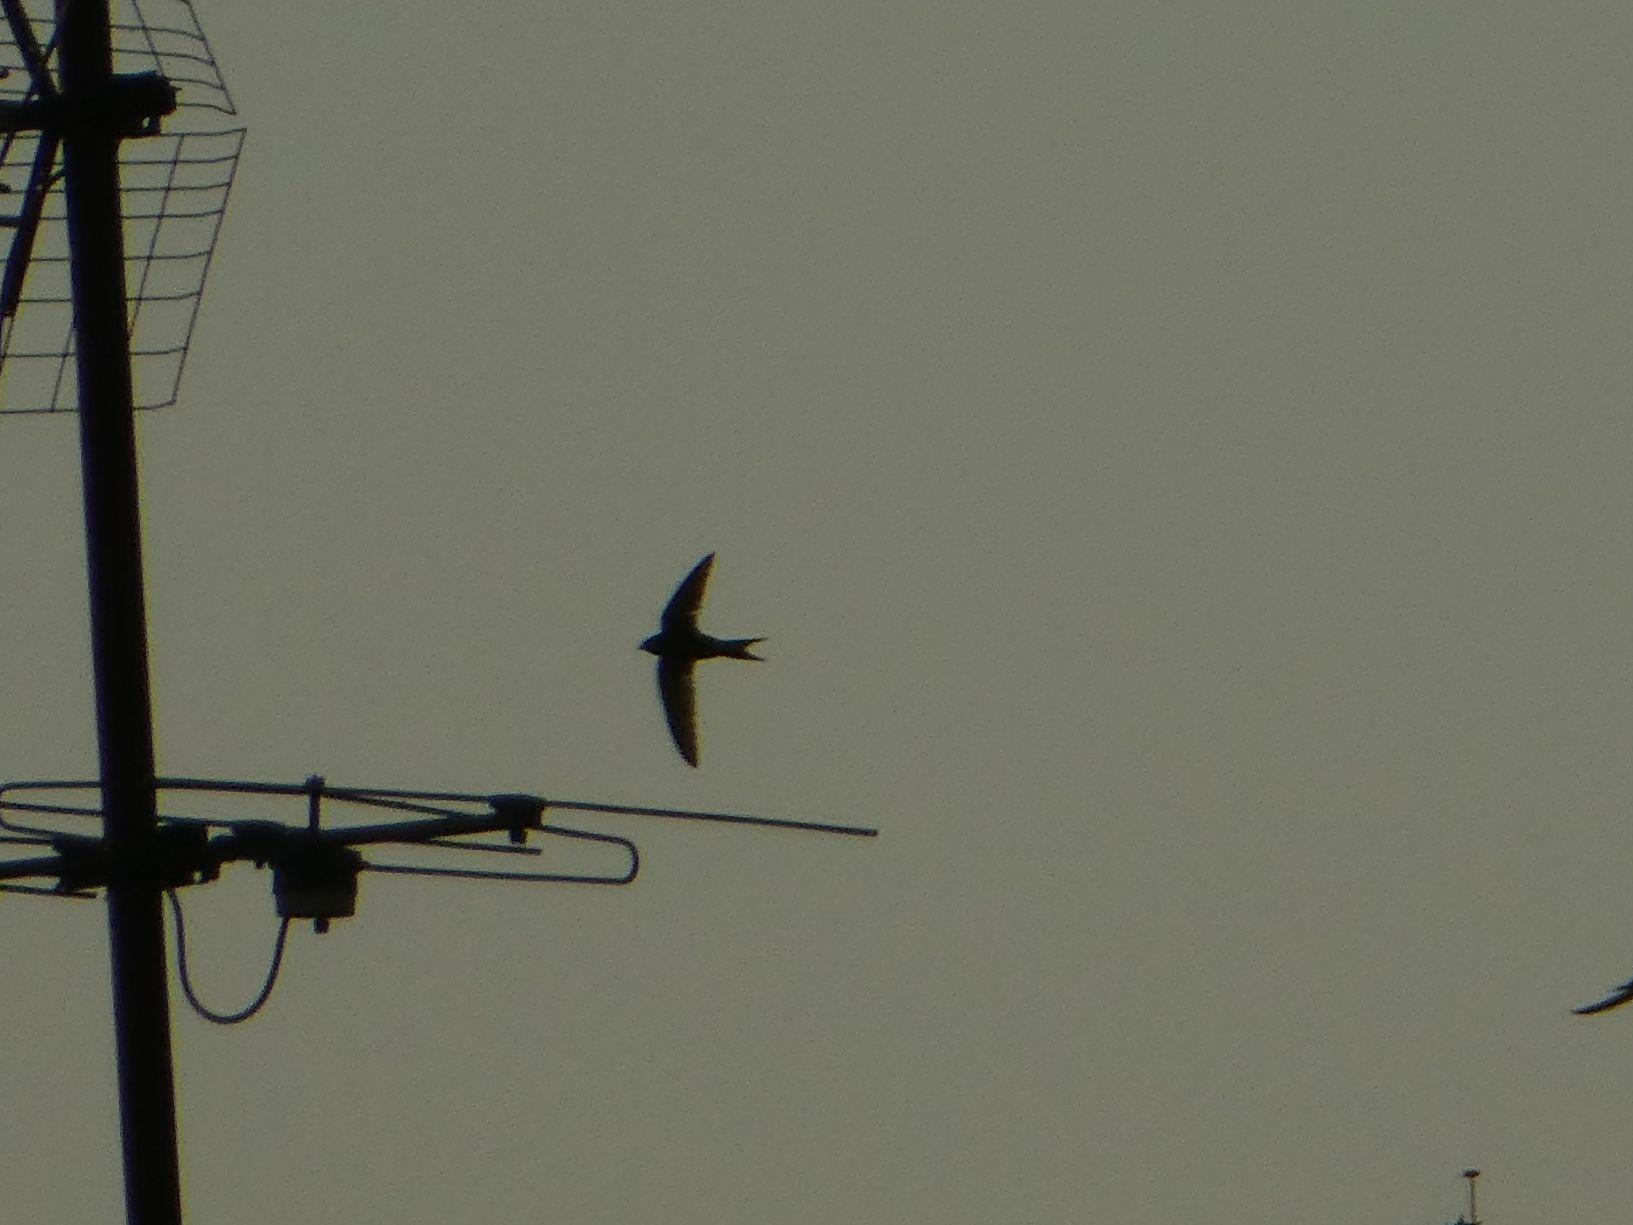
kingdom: Animalia
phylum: Chordata
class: Aves
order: Apodiformes
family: Apodidae
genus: Apus
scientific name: Apus apus
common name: Common swift
